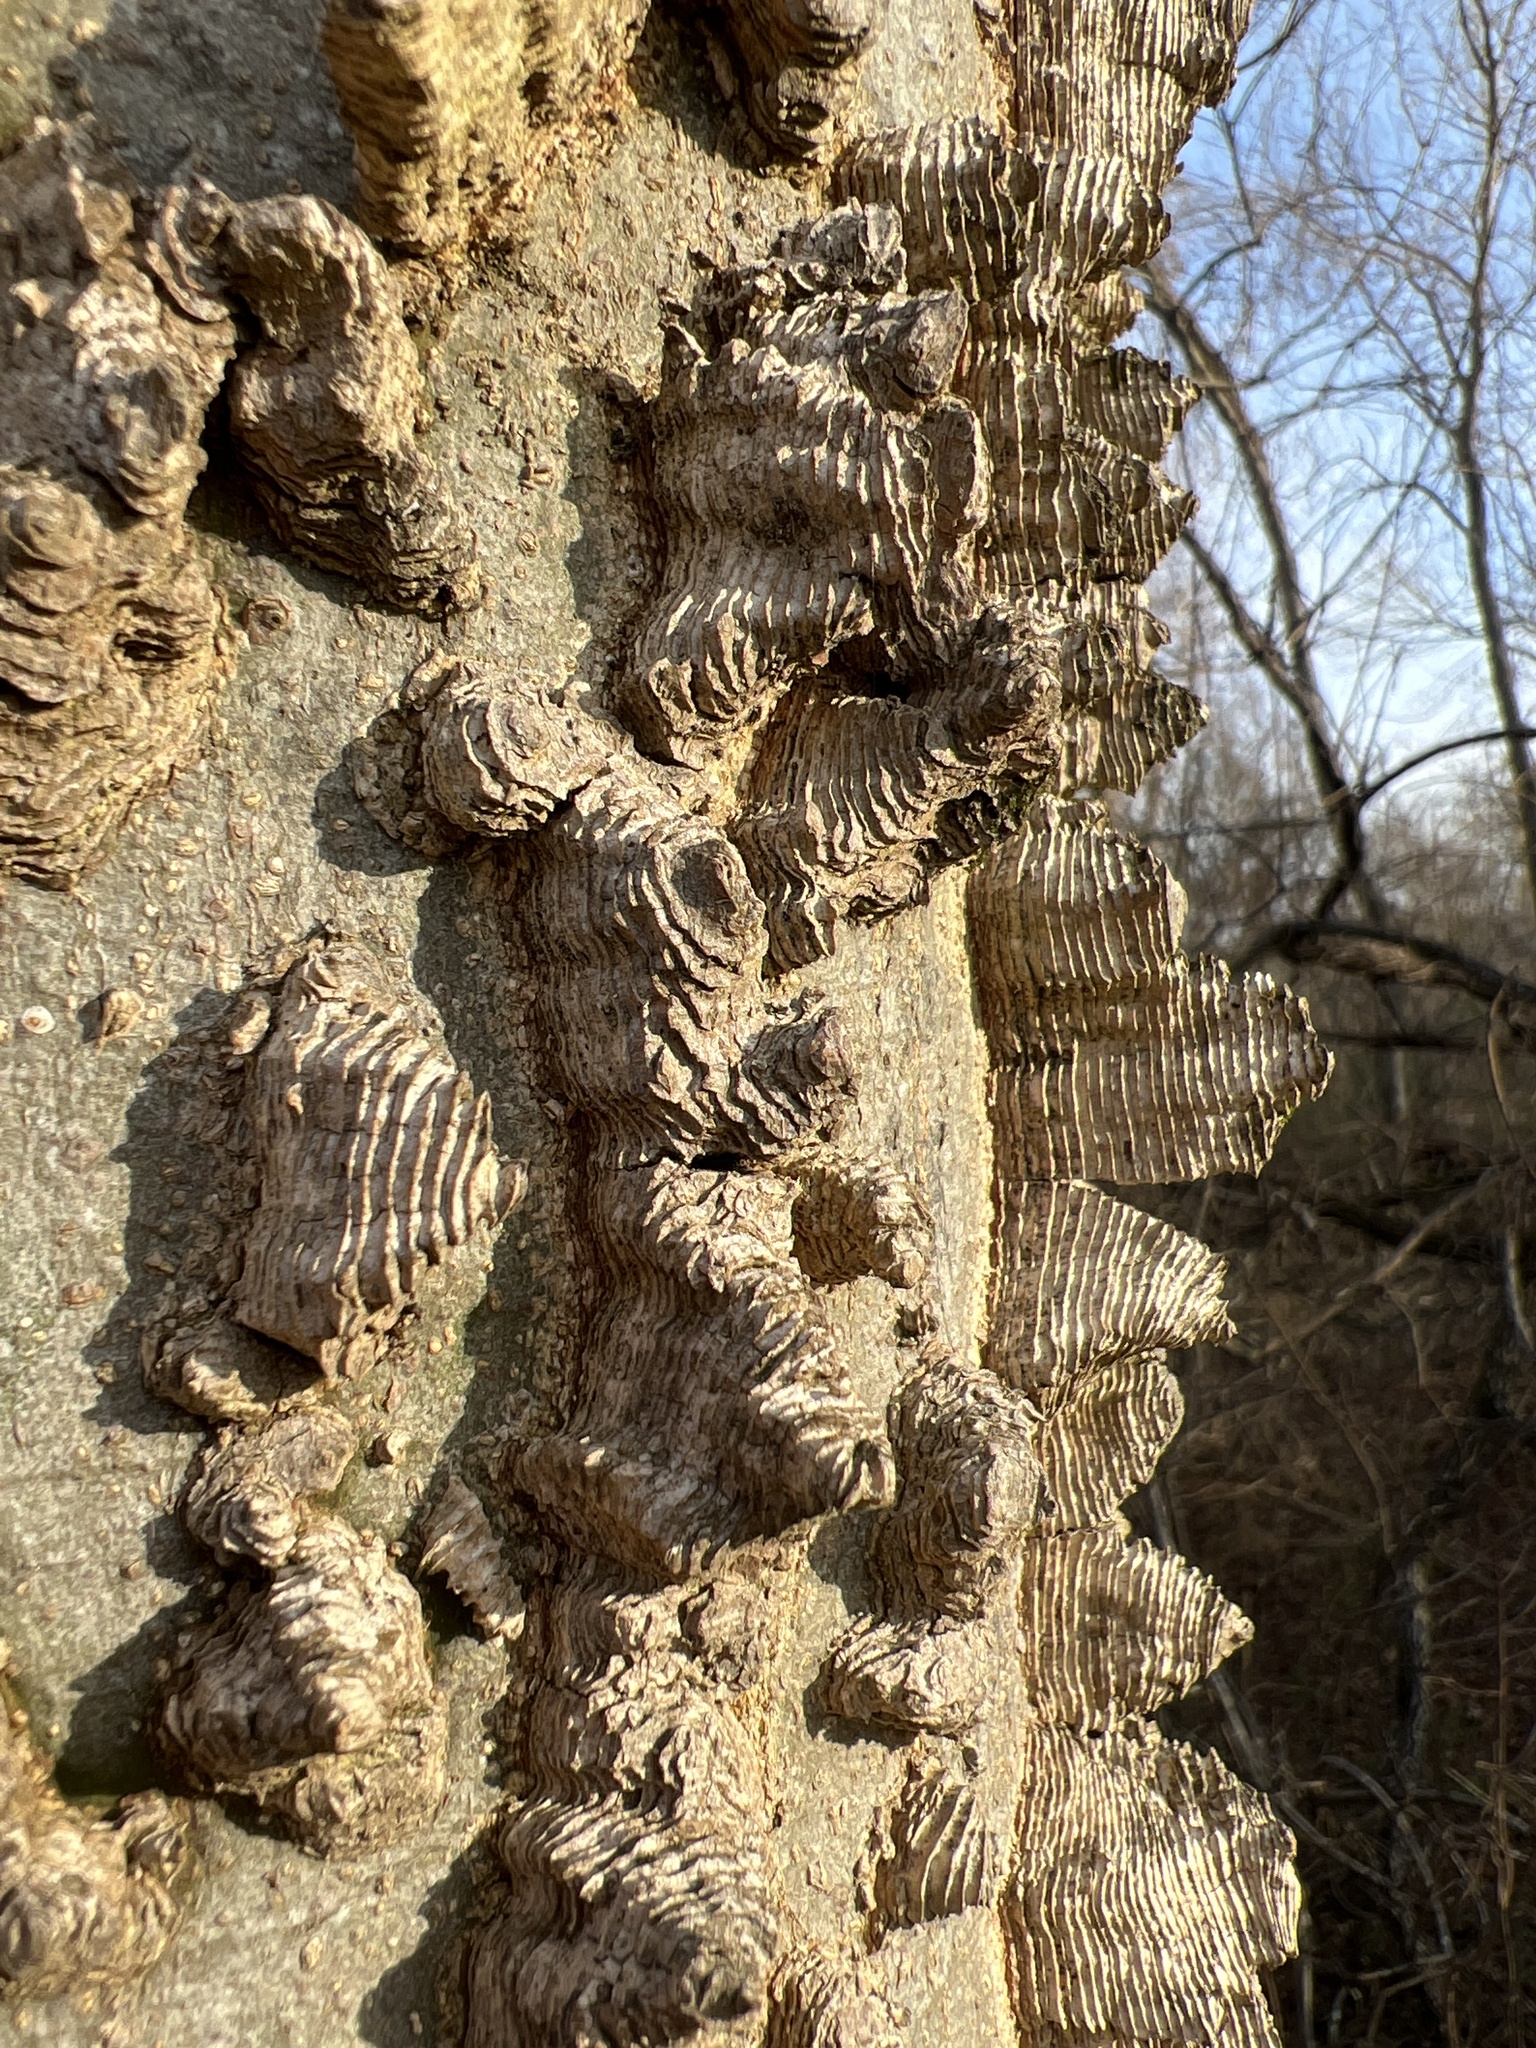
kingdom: Plantae
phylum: Tracheophyta
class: Magnoliopsida
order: Rosales
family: Cannabaceae
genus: Celtis
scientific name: Celtis laevigata
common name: Sugarberry
